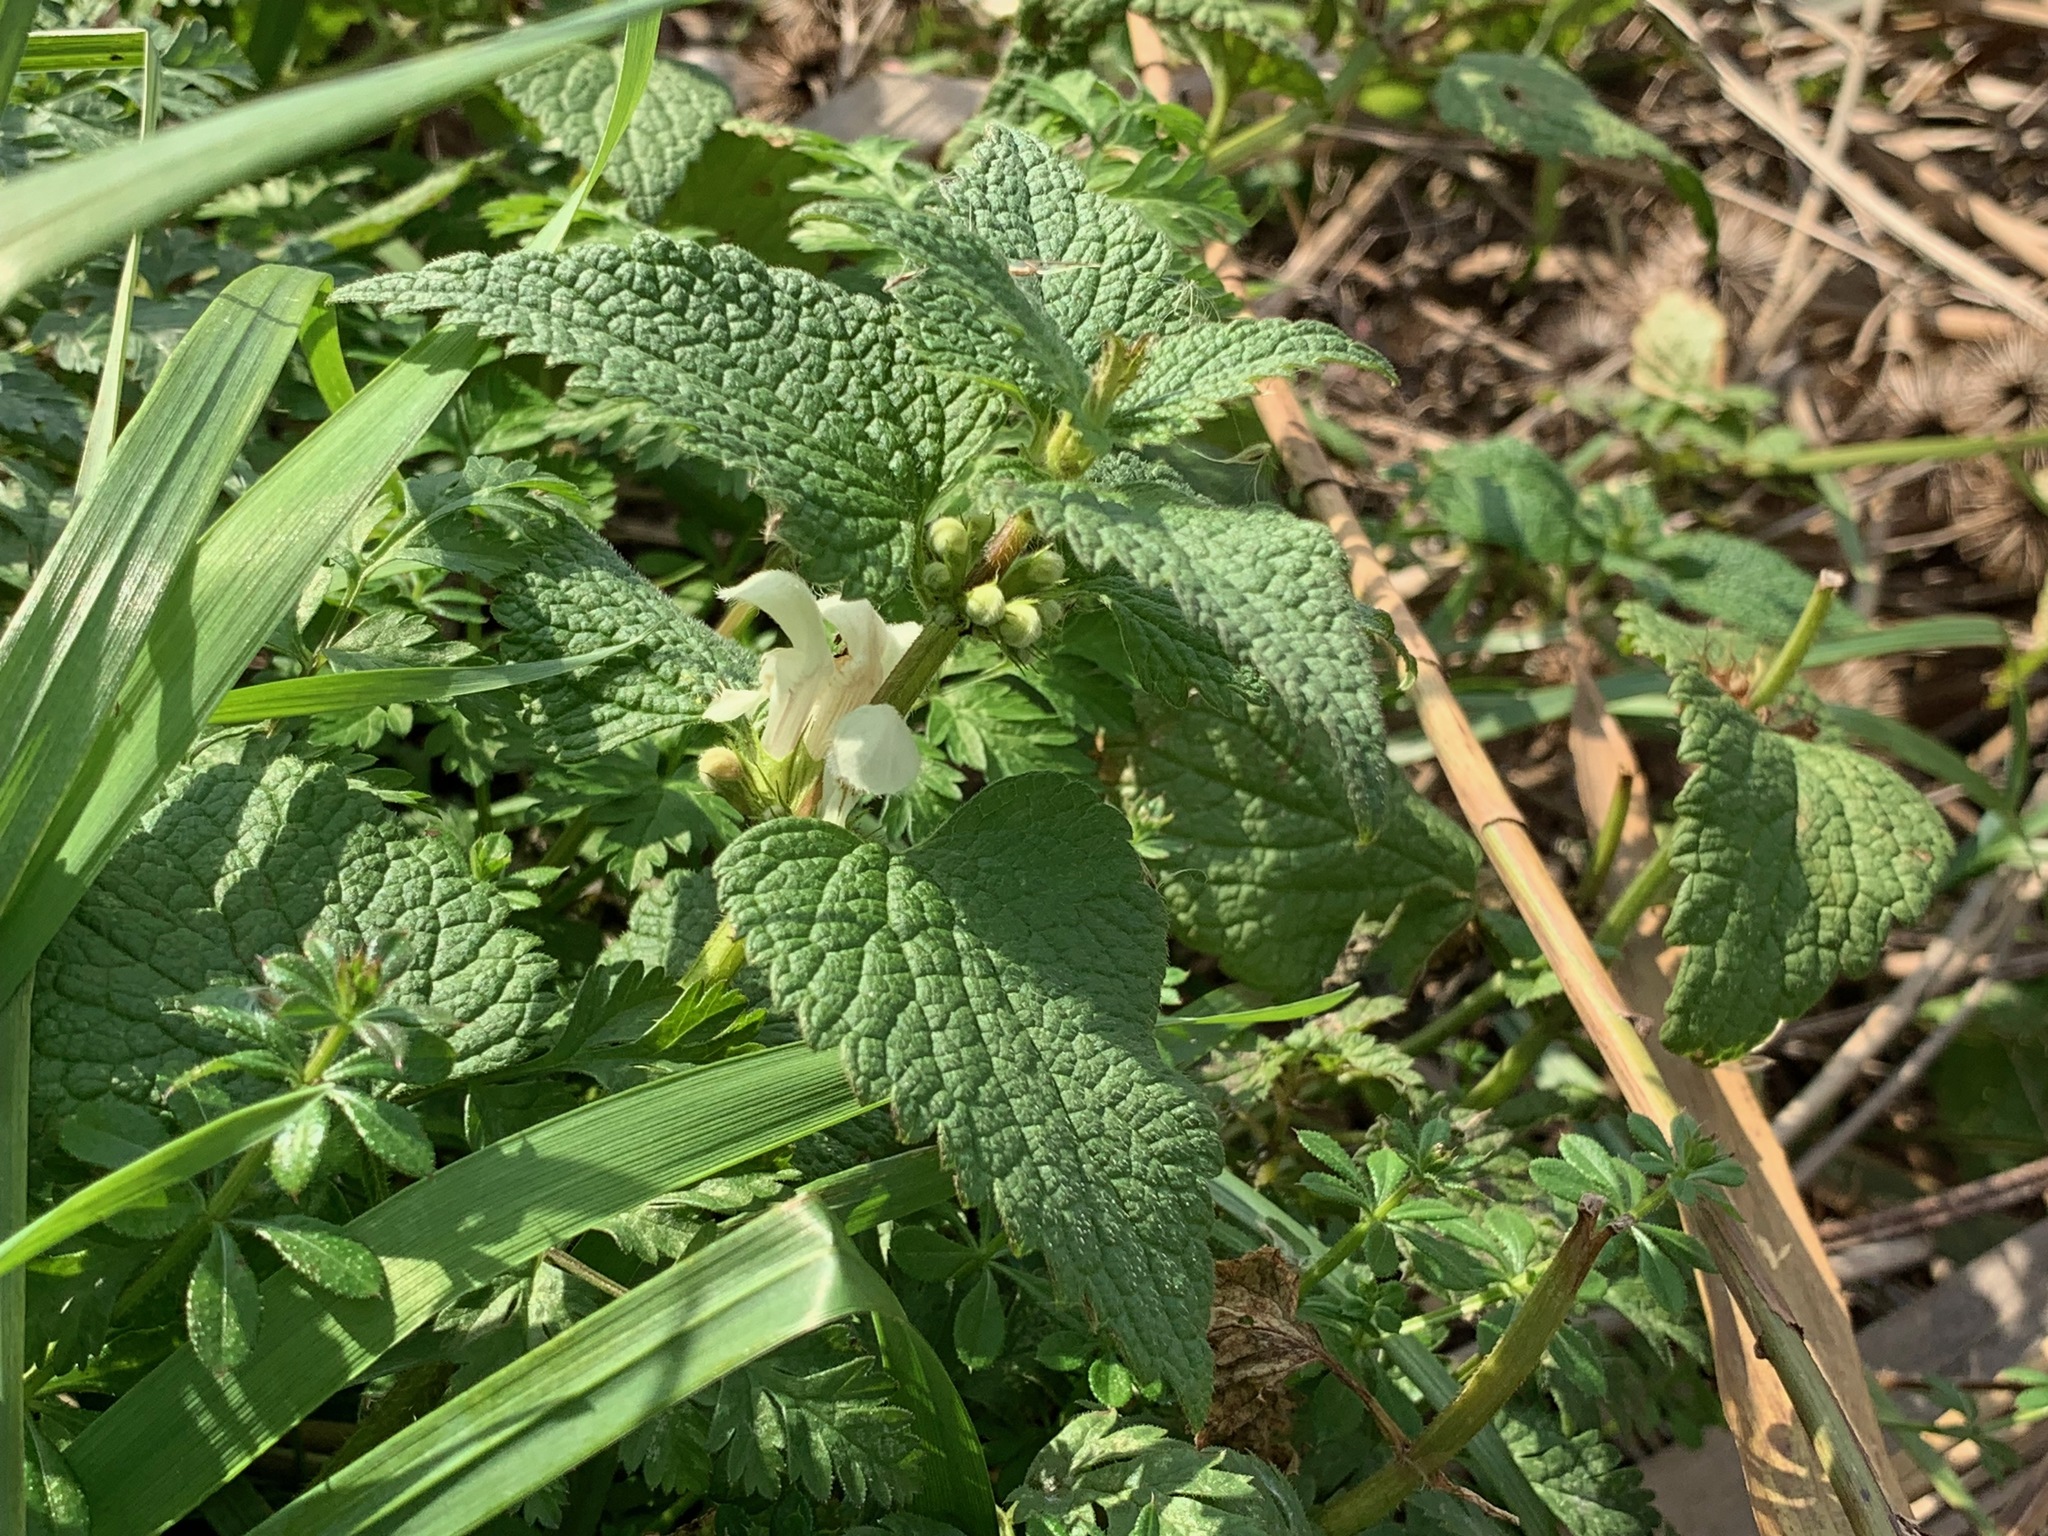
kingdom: Plantae
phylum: Tracheophyta
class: Magnoliopsida
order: Lamiales
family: Lamiaceae
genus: Lamium
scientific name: Lamium album
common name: White dead-nettle
